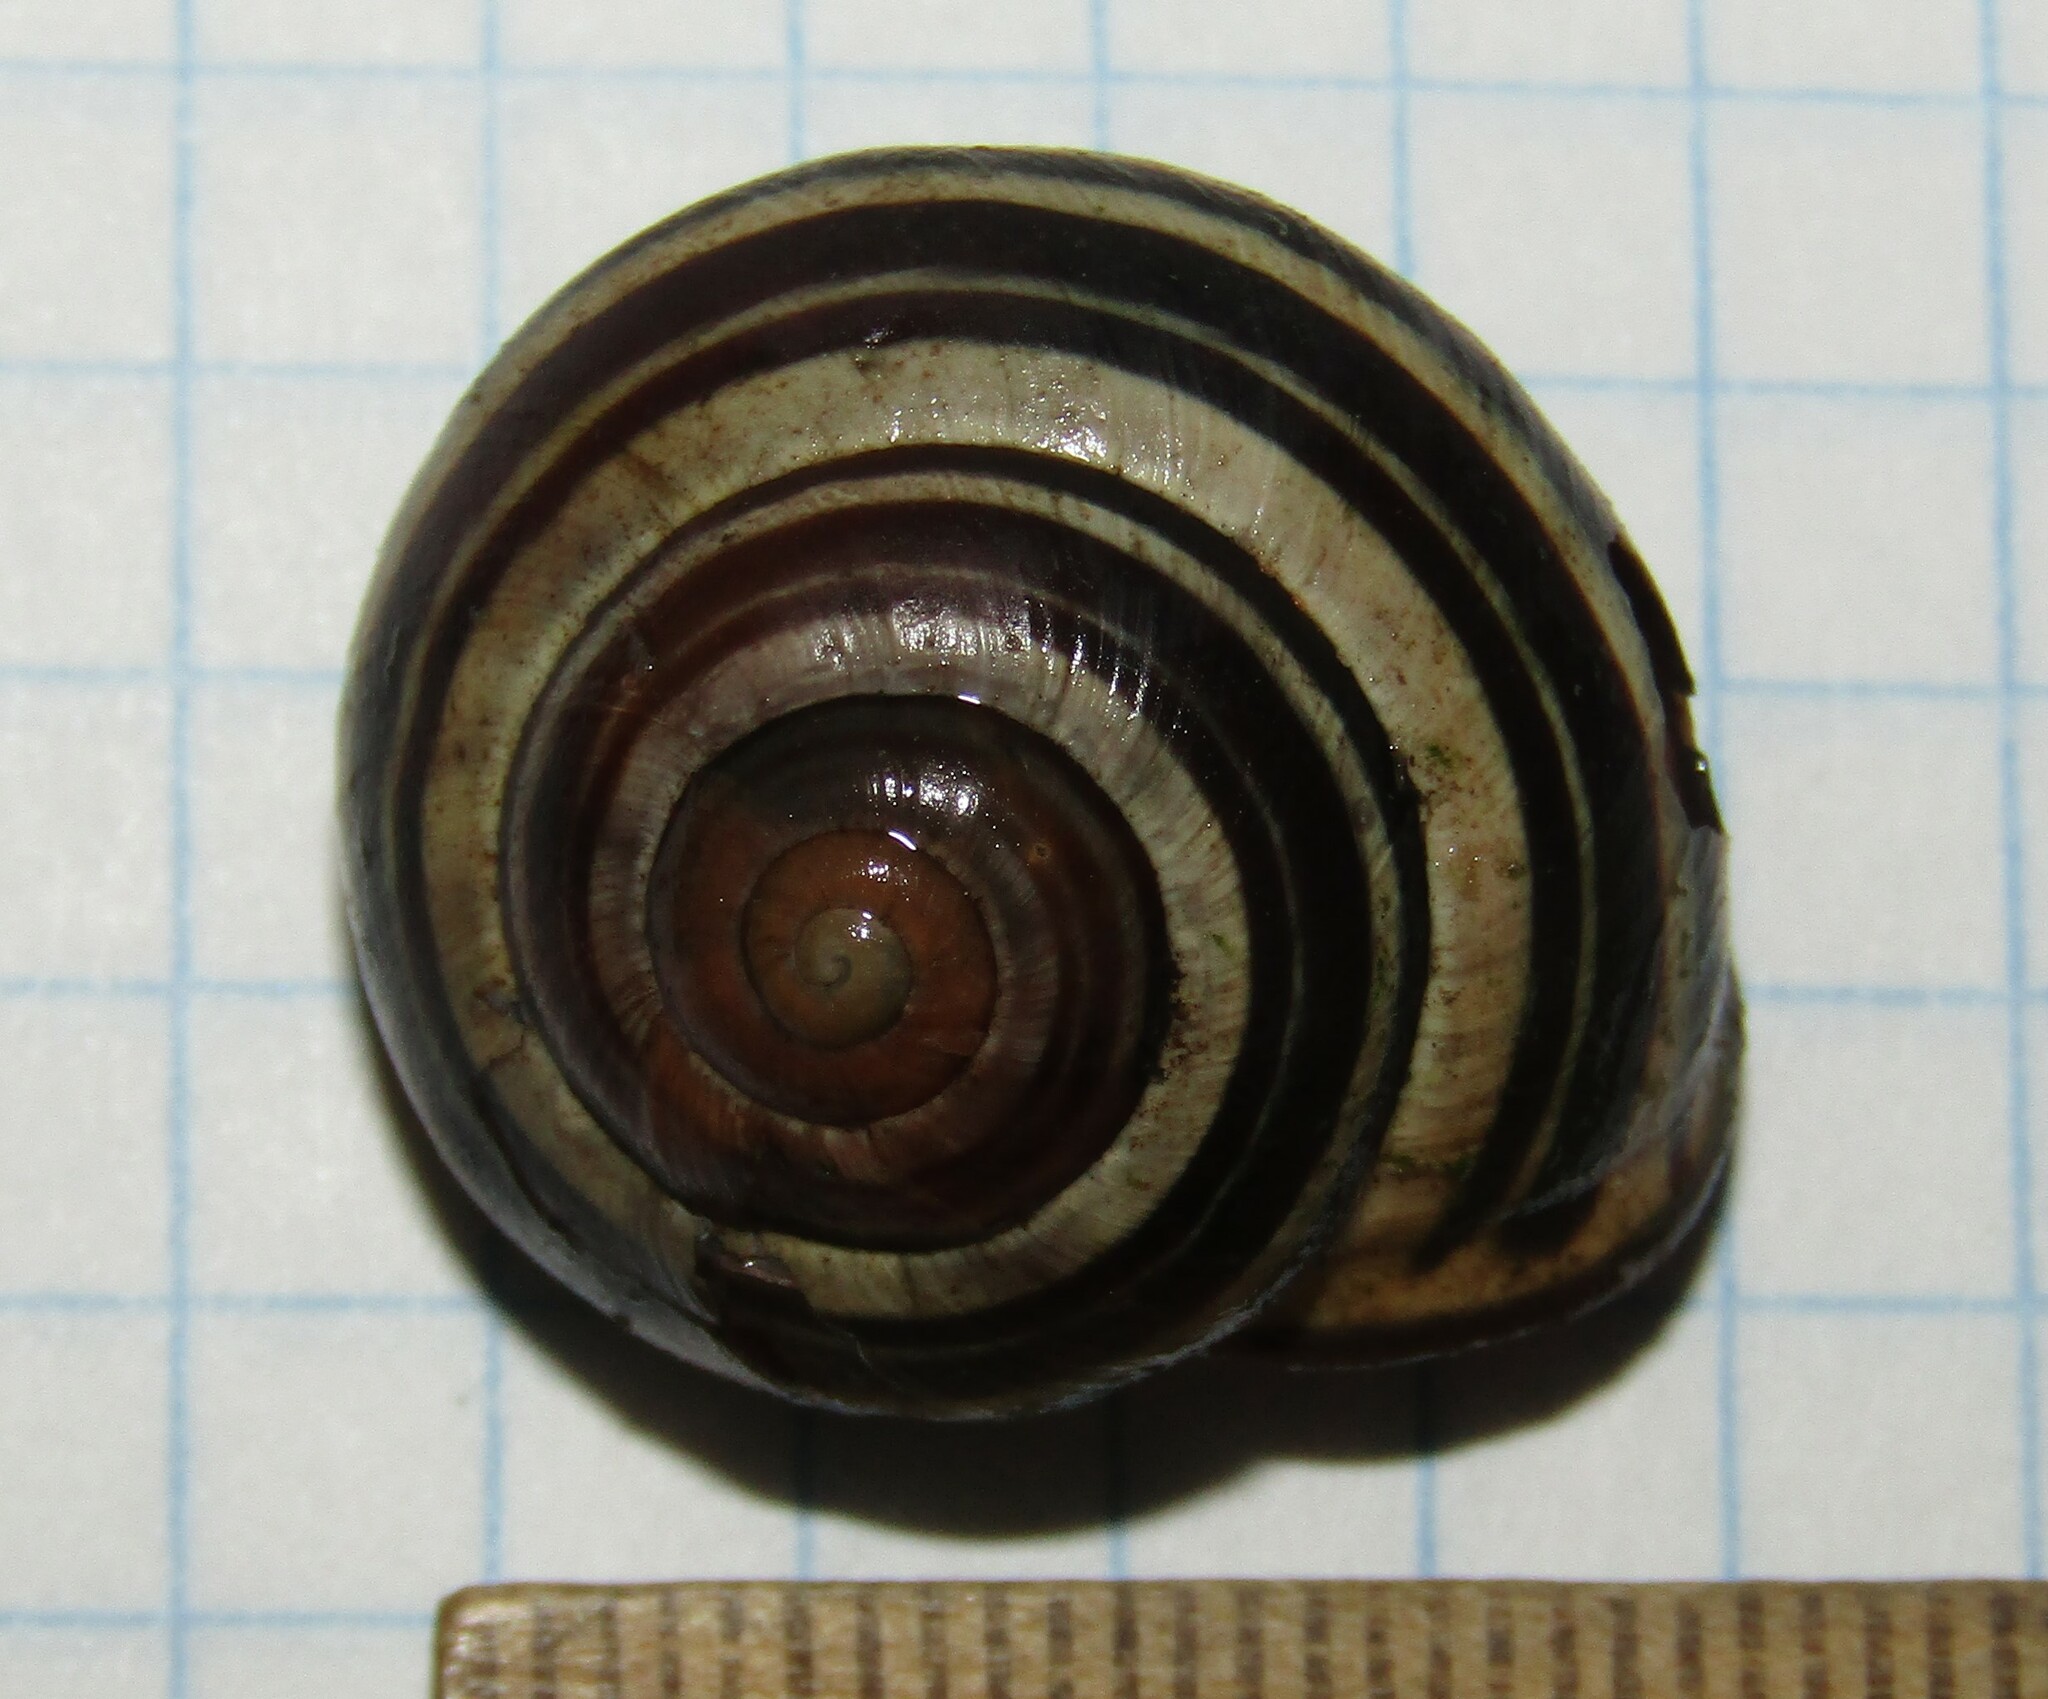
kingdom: Animalia
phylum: Mollusca
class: Gastropoda
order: Stylommatophora
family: Helicidae
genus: Cepaea
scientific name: Cepaea nemoralis
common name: Grovesnail
